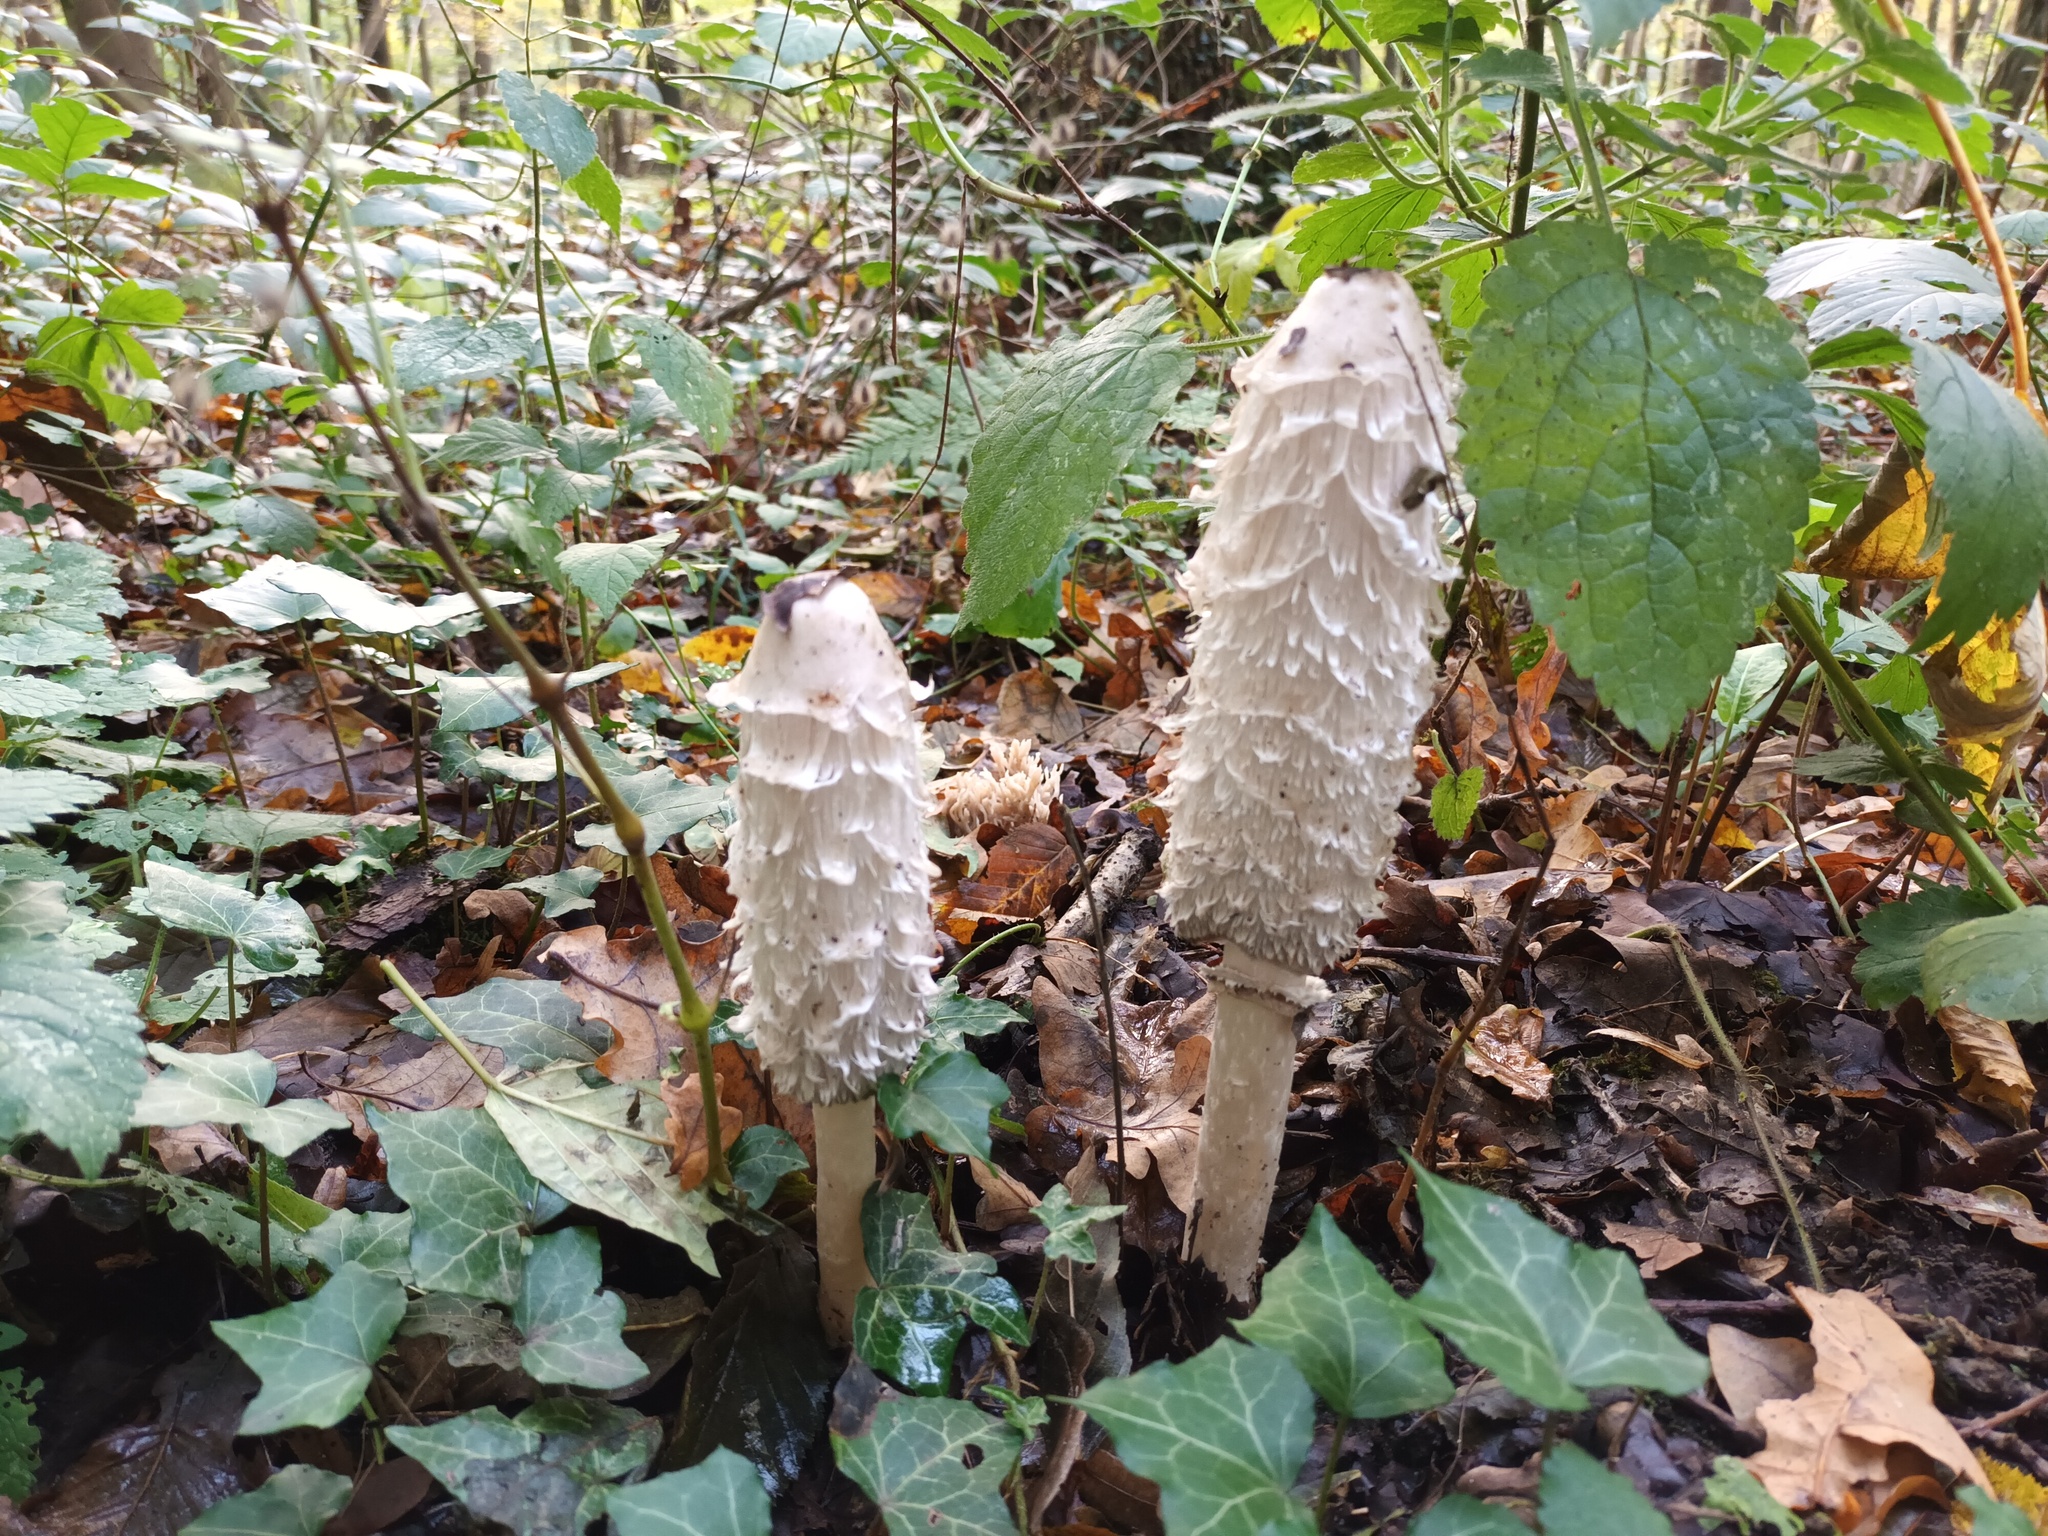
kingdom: Fungi
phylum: Basidiomycota
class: Agaricomycetes
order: Agaricales
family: Agaricaceae
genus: Coprinus
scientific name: Coprinus comatus
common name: Lawyer's wig
